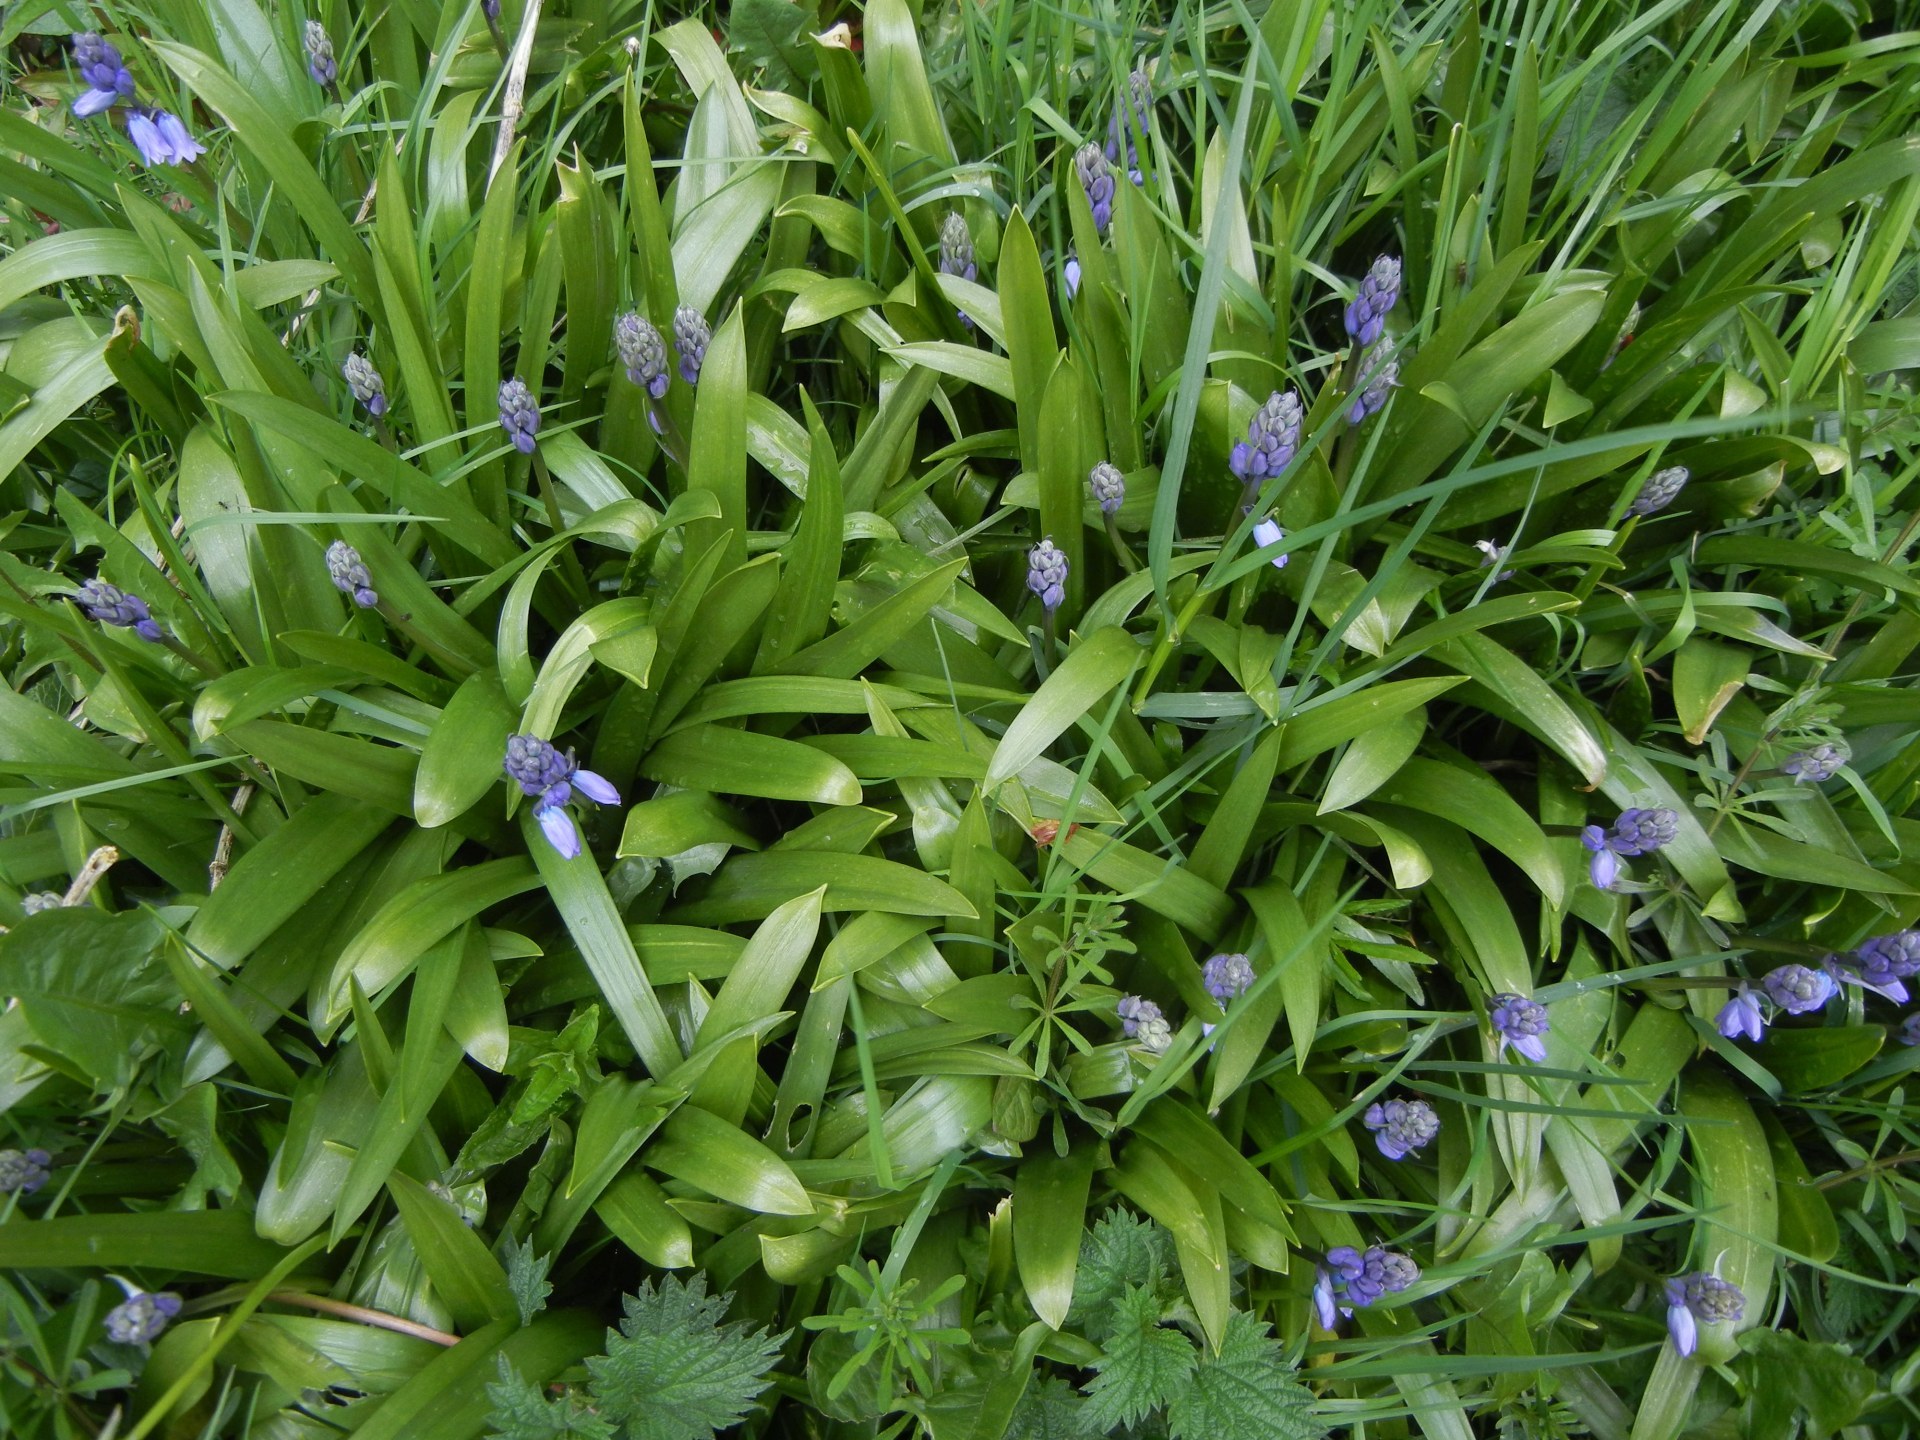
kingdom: Plantae
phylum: Tracheophyta
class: Liliopsida
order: Asparagales
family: Asparagaceae
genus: Hyacinthoides
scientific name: Hyacinthoides massartiana
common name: Hyacinthoides
